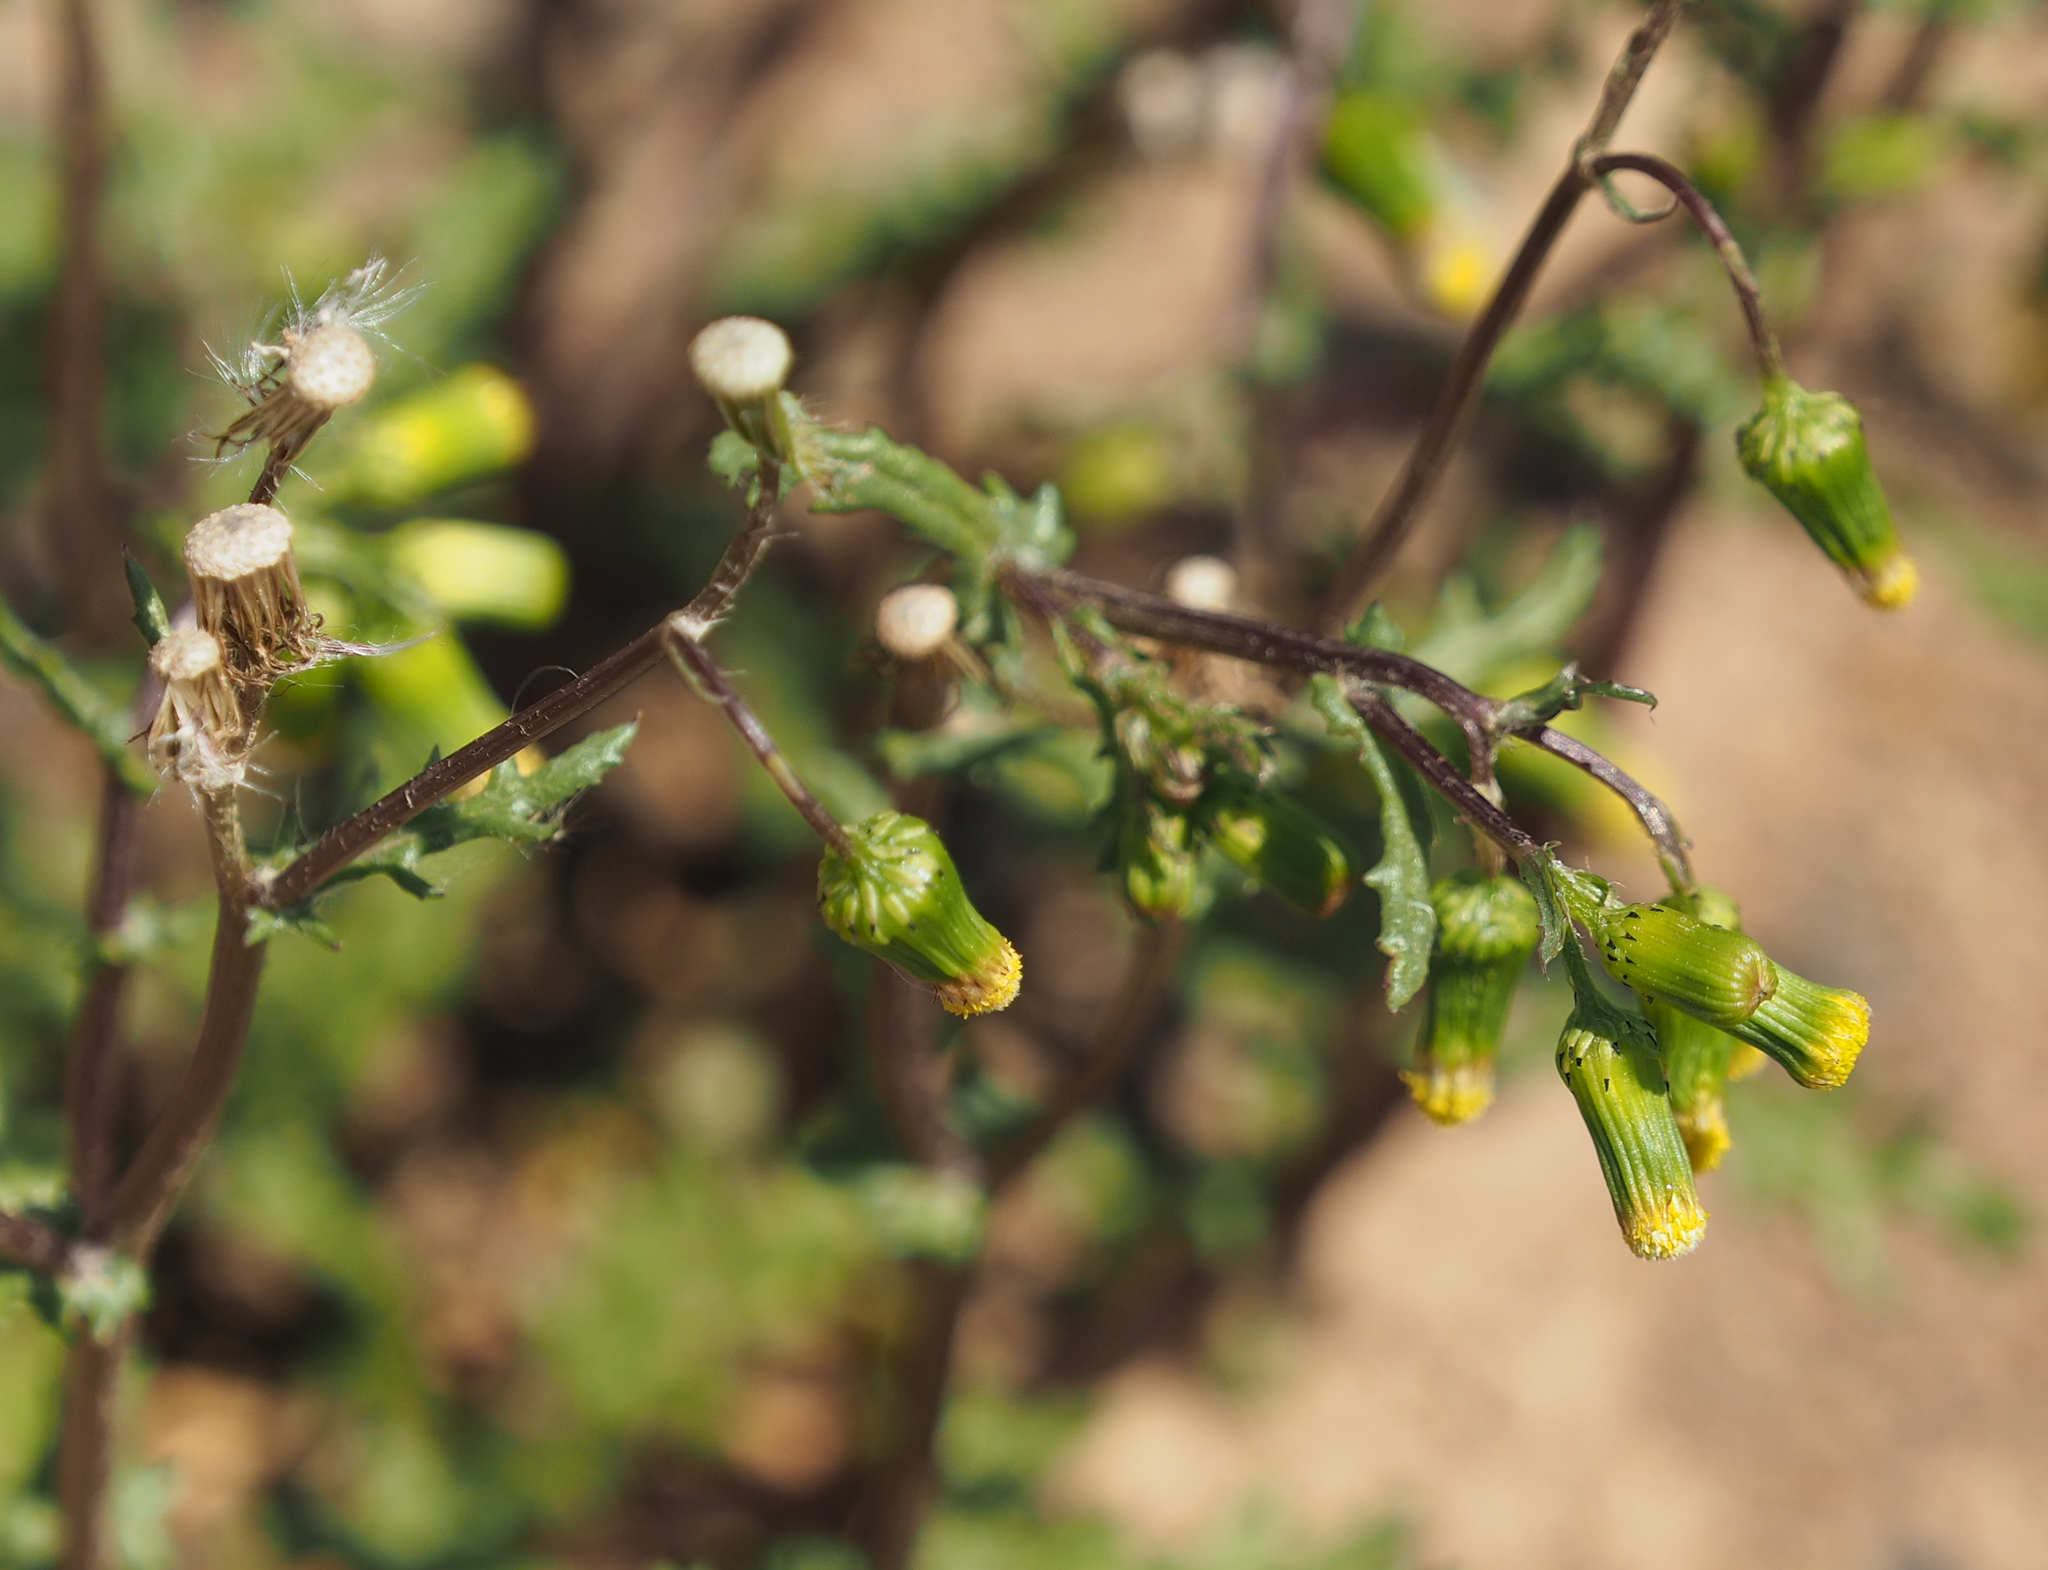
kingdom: Plantae
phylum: Tracheophyta
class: Magnoliopsida
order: Asterales
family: Asteraceae
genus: Senecio
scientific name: Senecio vulgaris
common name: Old-man-in-the-spring
